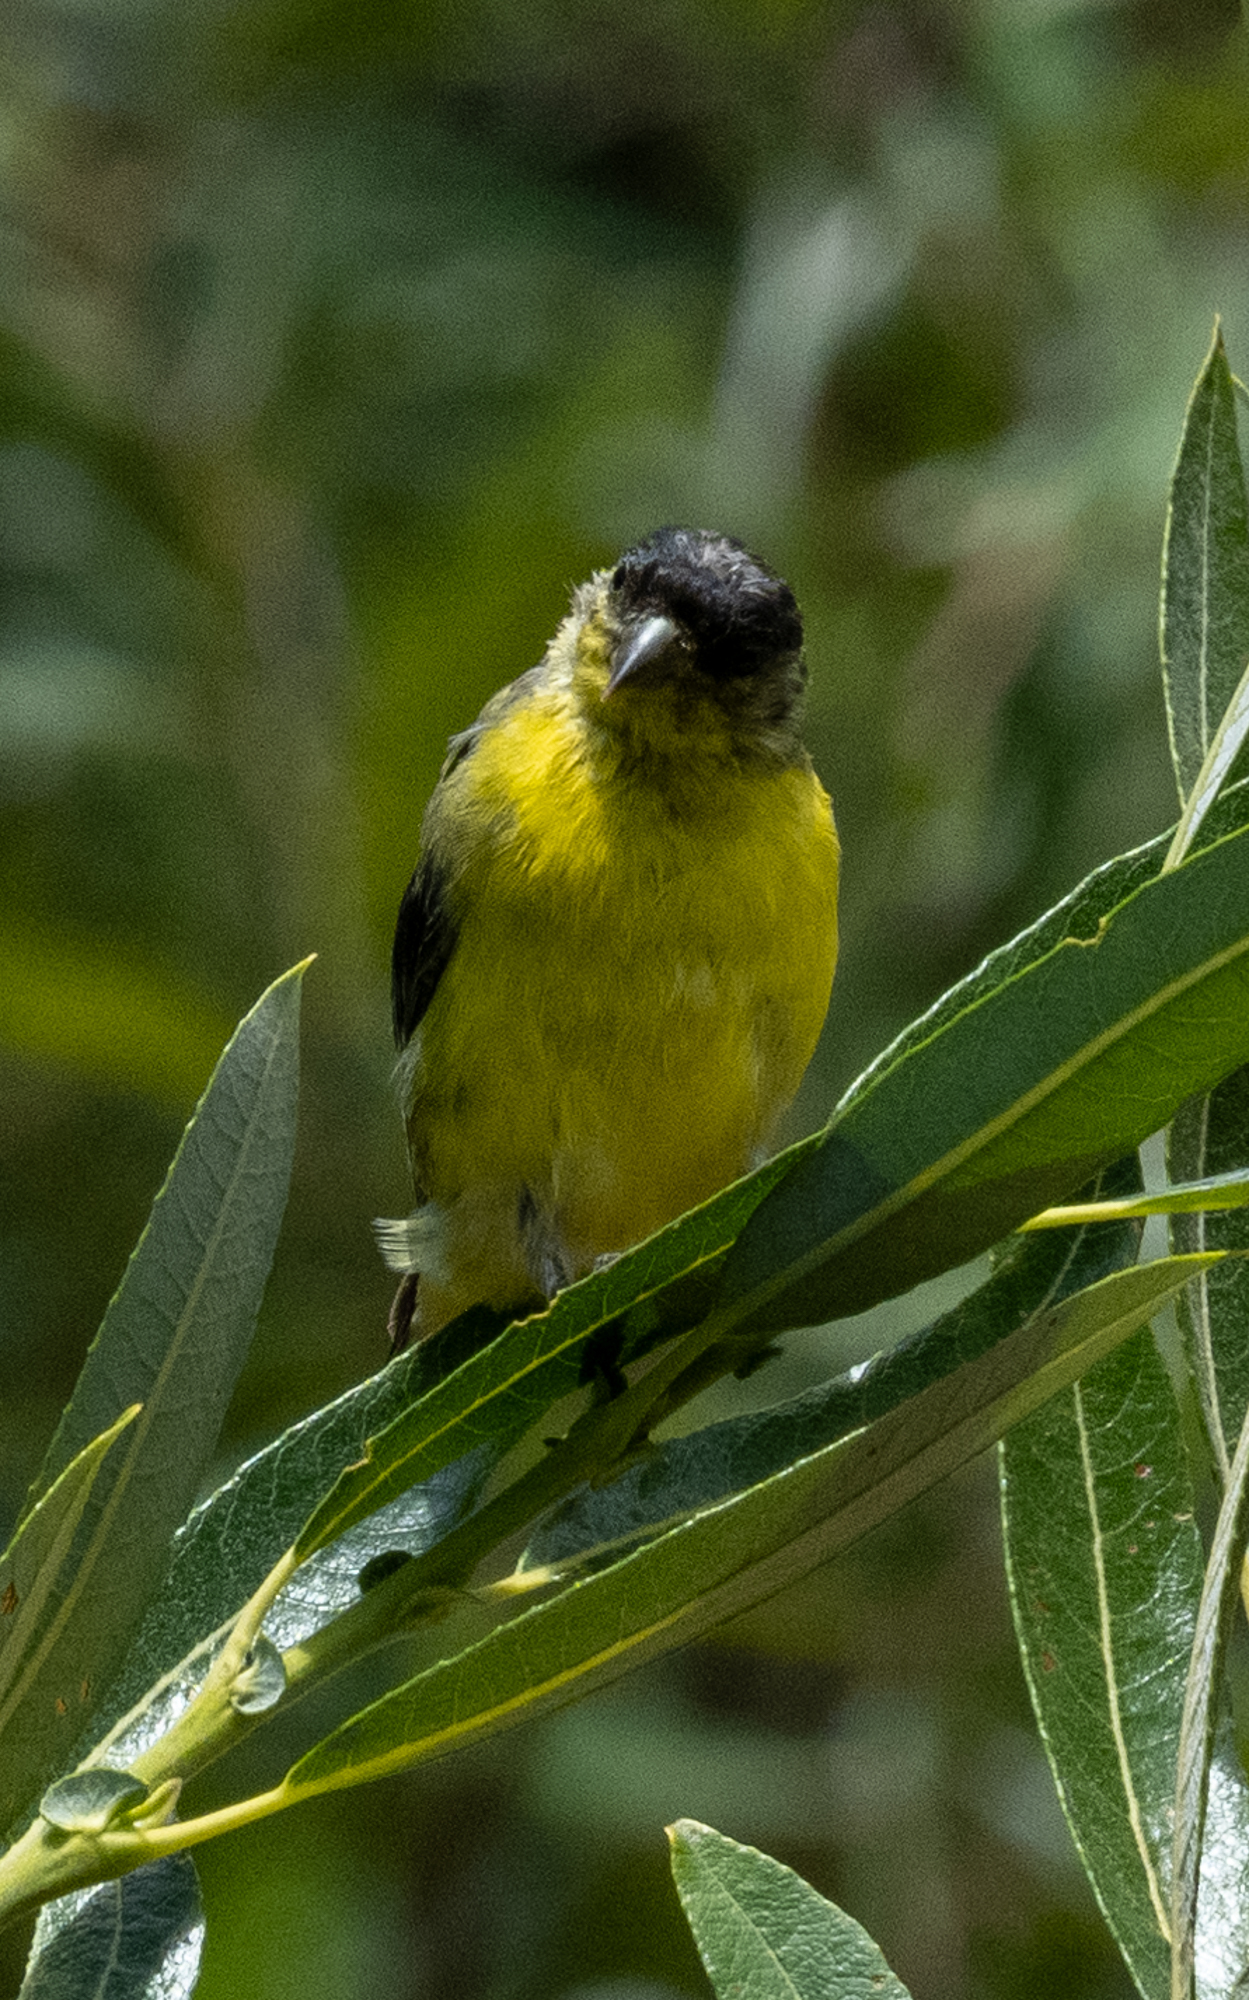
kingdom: Animalia
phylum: Chordata
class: Aves
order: Passeriformes
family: Fringillidae
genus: Spinus
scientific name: Spinus psaltria
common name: Lesser goldfinch
